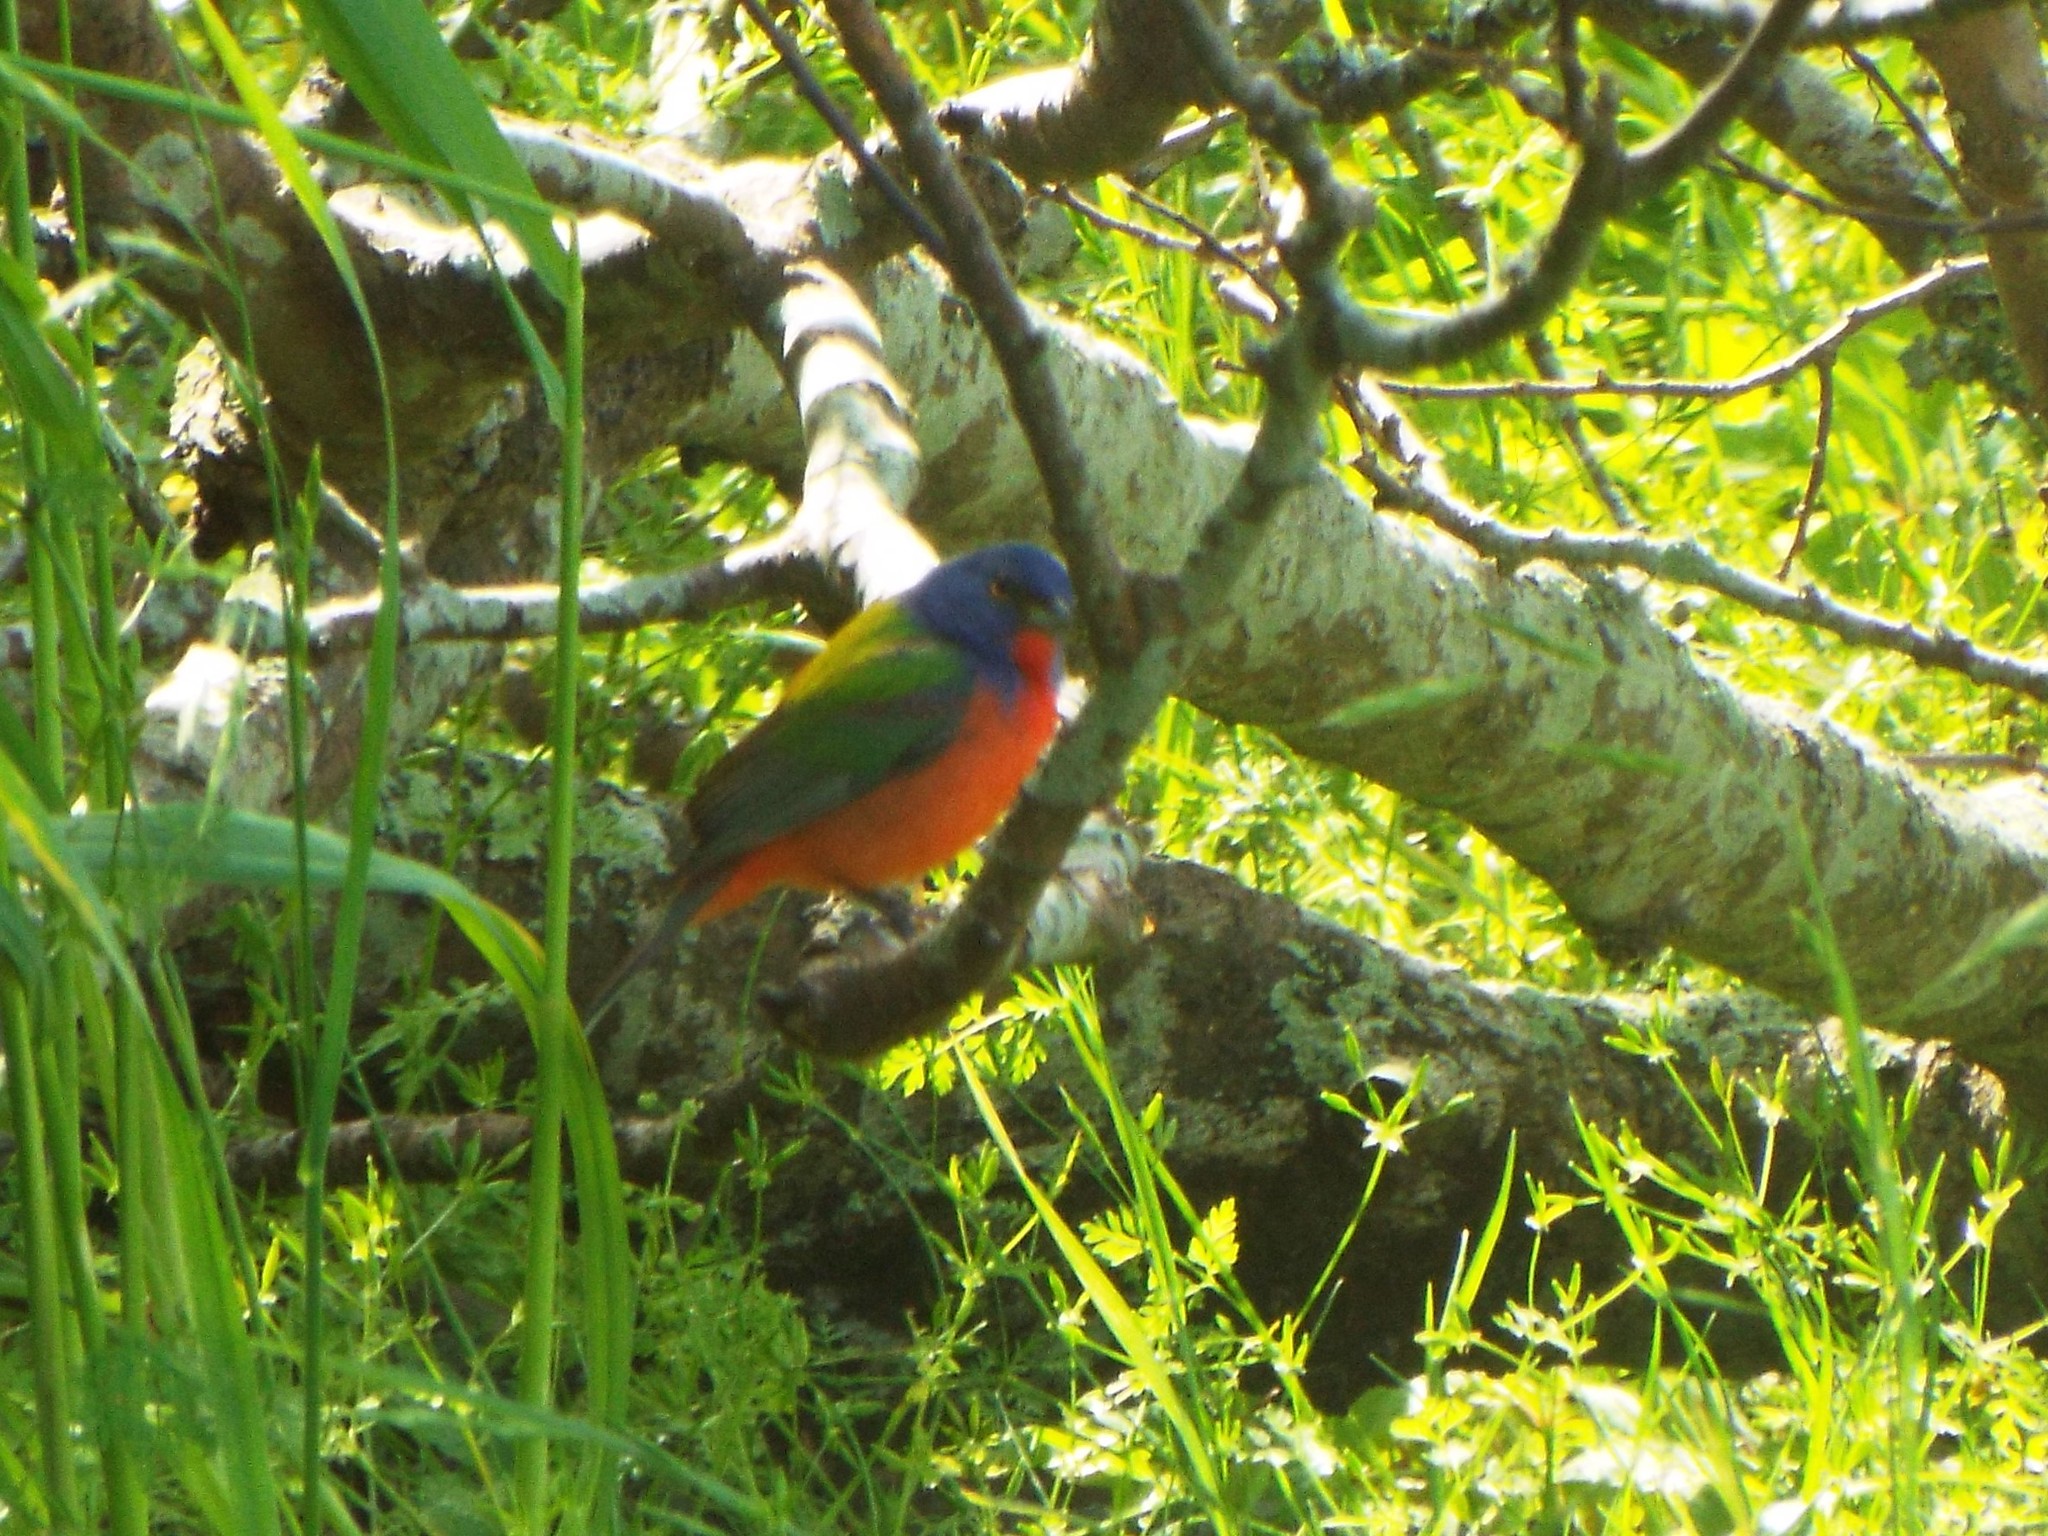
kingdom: Animalia
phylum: Chordata
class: Aves
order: Passeriformes
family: Cardinalidae
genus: Passerina
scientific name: Passerina ciris
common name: Painted bunting
